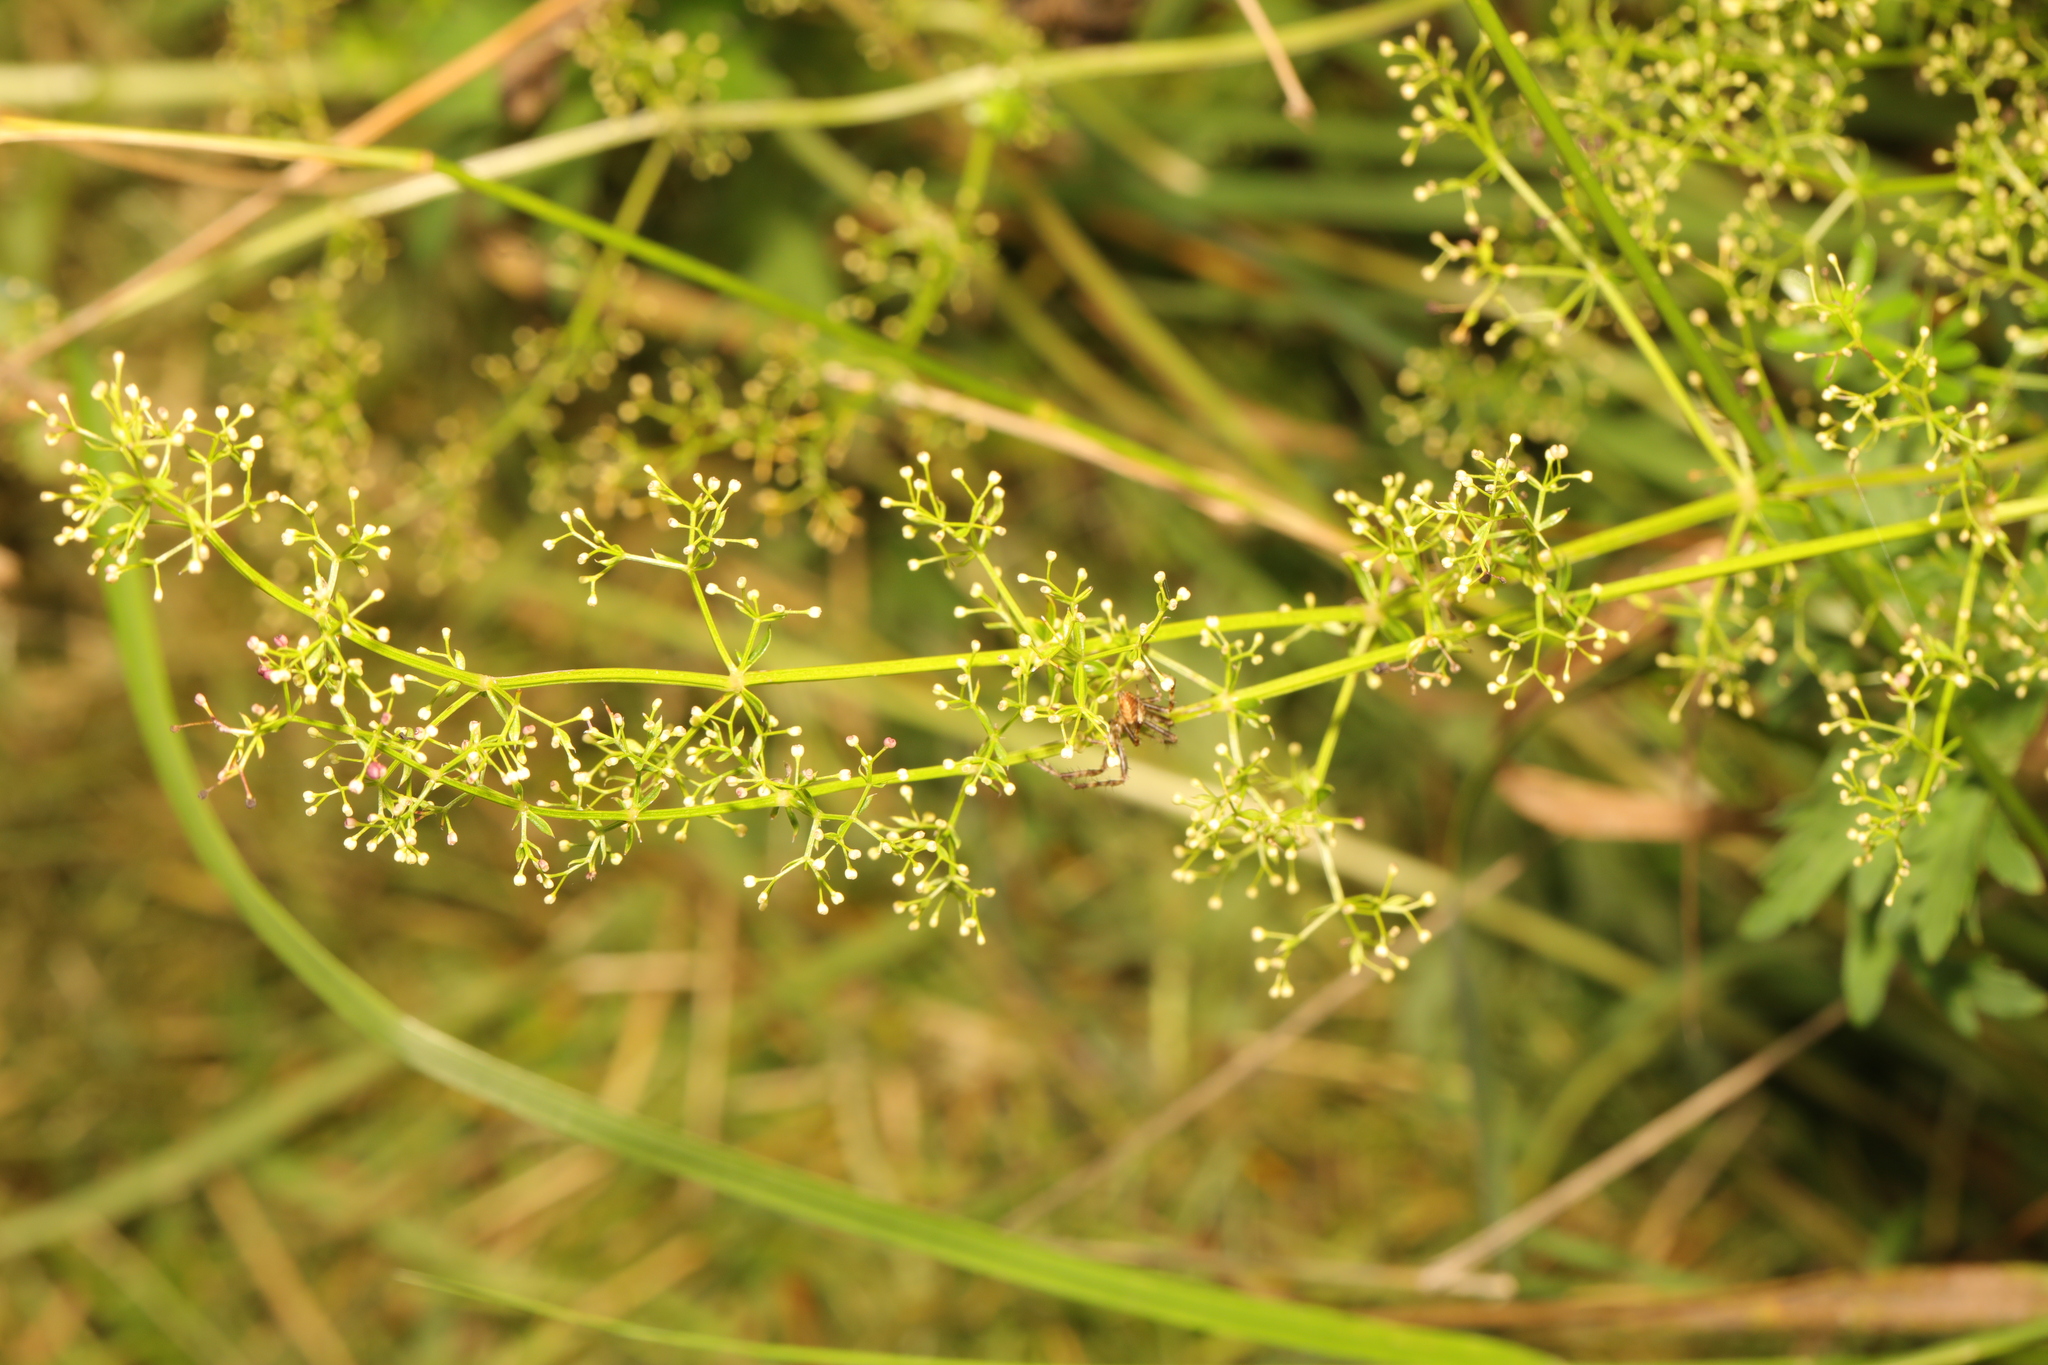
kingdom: Plantae
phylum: Tracheophyta
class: Magnoliopsida
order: Gentianales
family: Rubiaceae
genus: Galium
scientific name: Galium mollugo
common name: Hedge bedstraw
